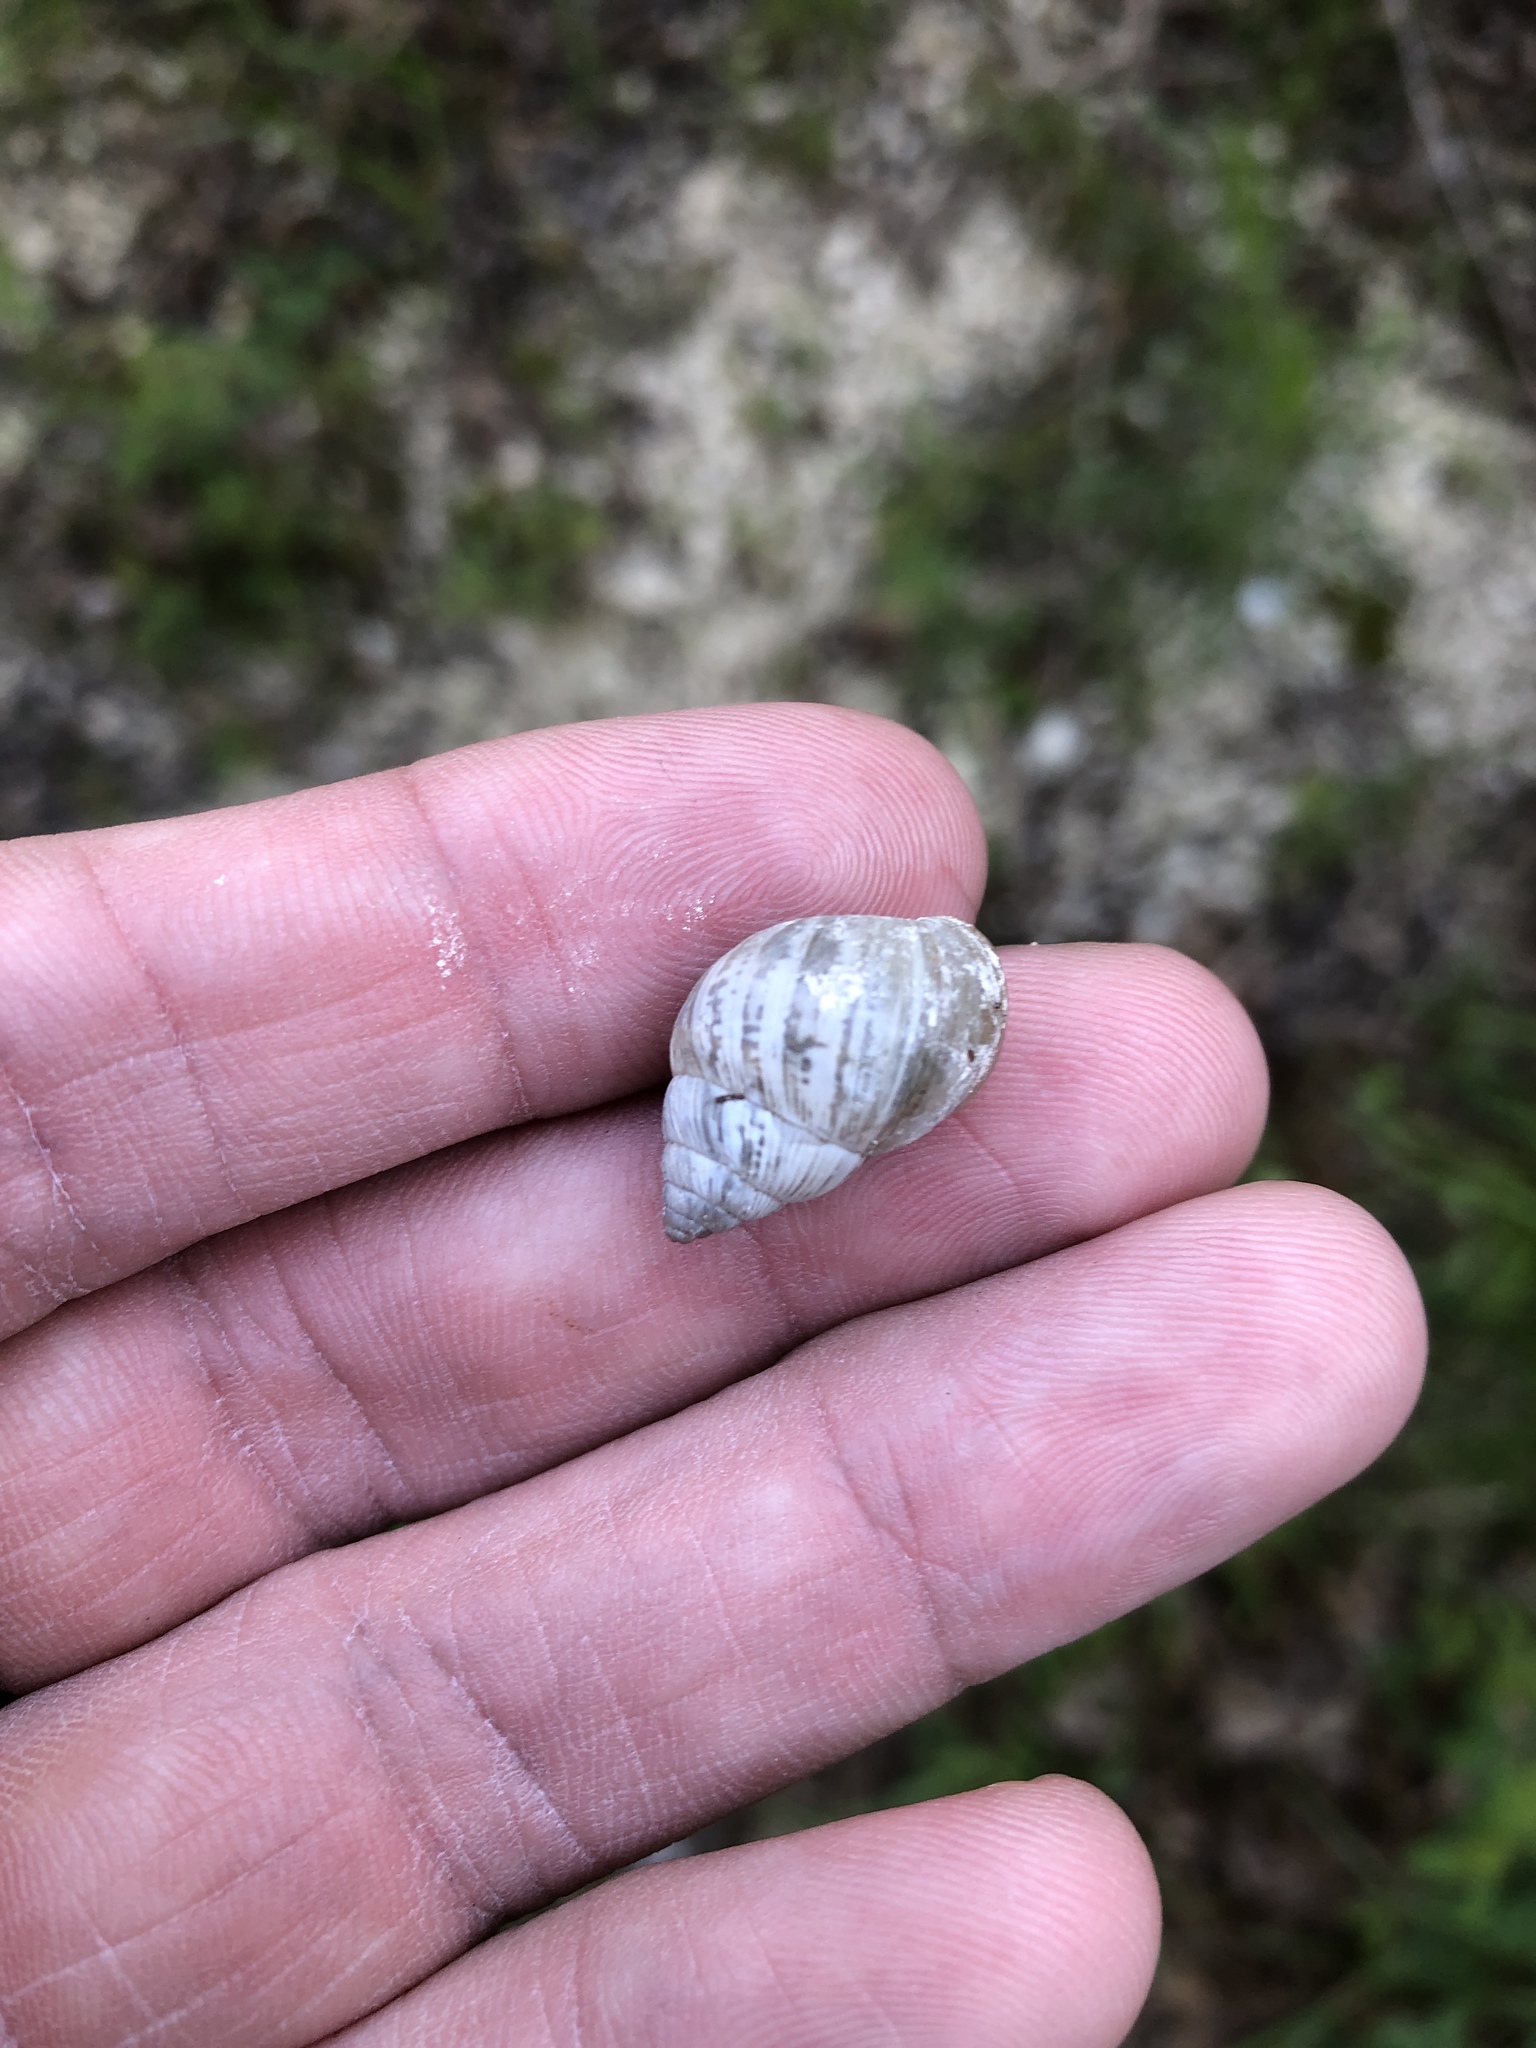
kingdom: Animalia
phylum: Mollusca
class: Gastropoda
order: Stylommatophora
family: Bulimulidae
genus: Rabdotus
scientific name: Rabdotus dealbatus
